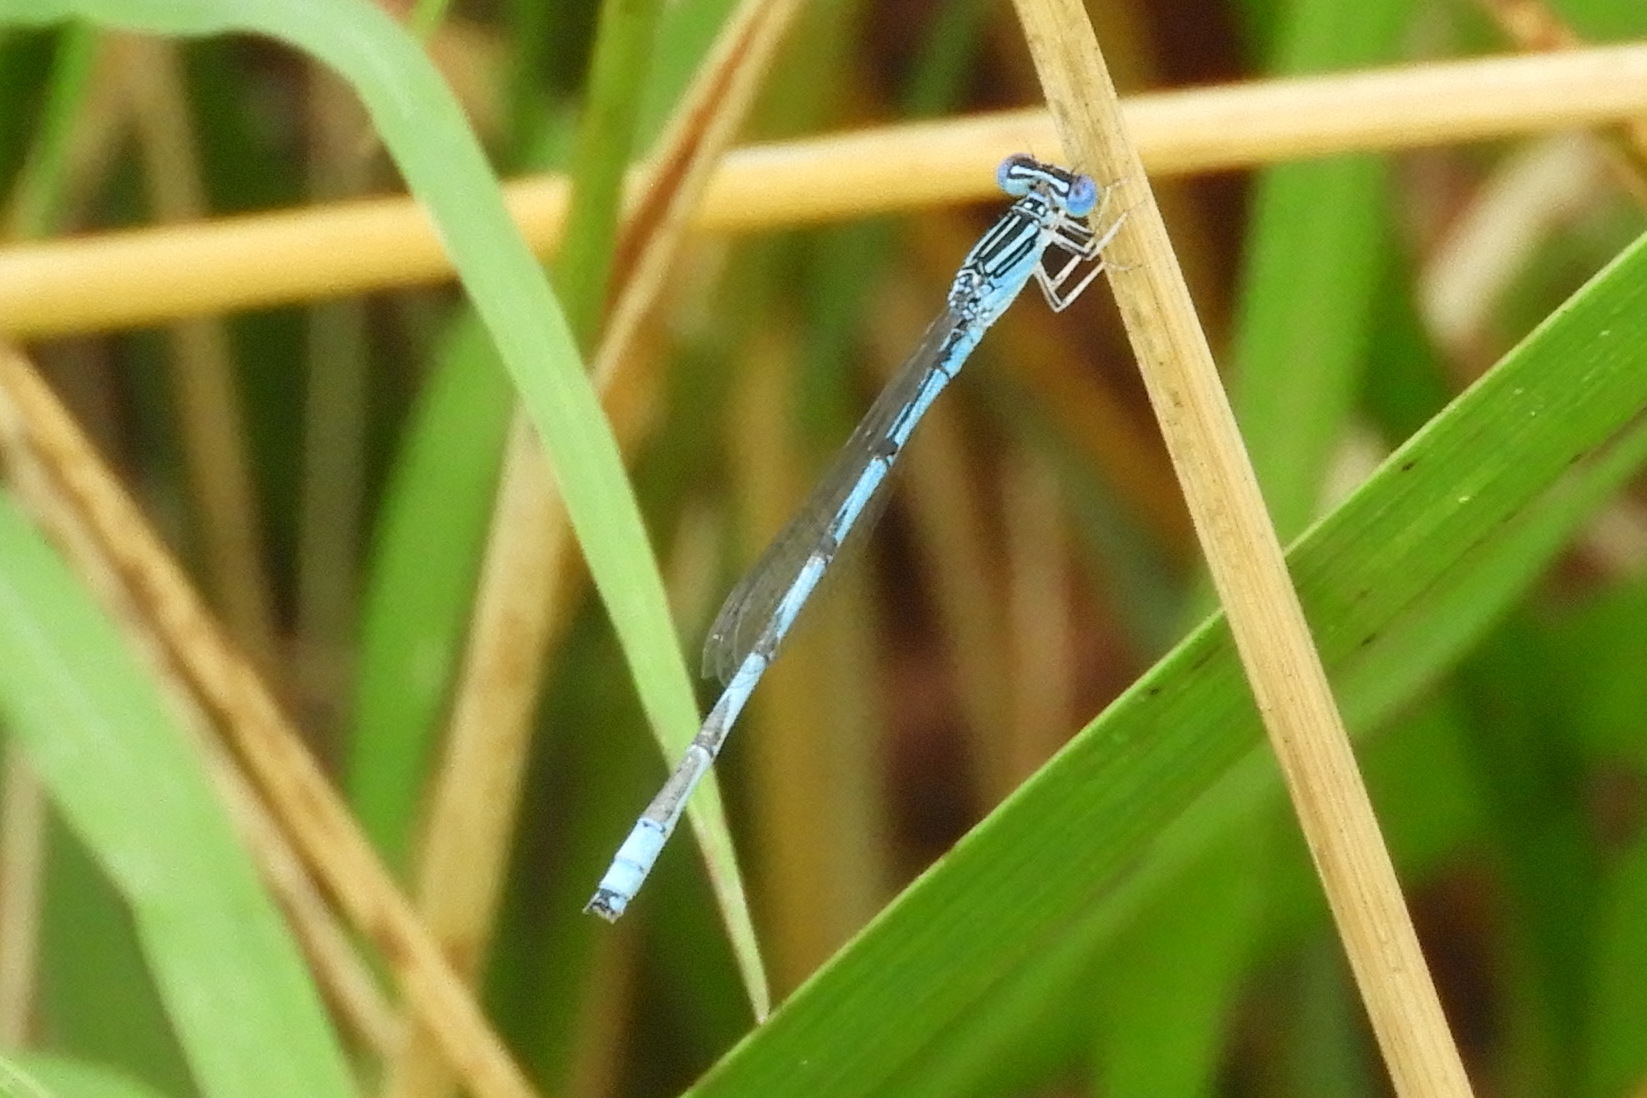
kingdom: Animalia
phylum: Arthropoda
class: Insecta
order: Odonata
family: Coenagrionidae
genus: Enallagma
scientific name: Enallagma basidens
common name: Double-striped bluet
